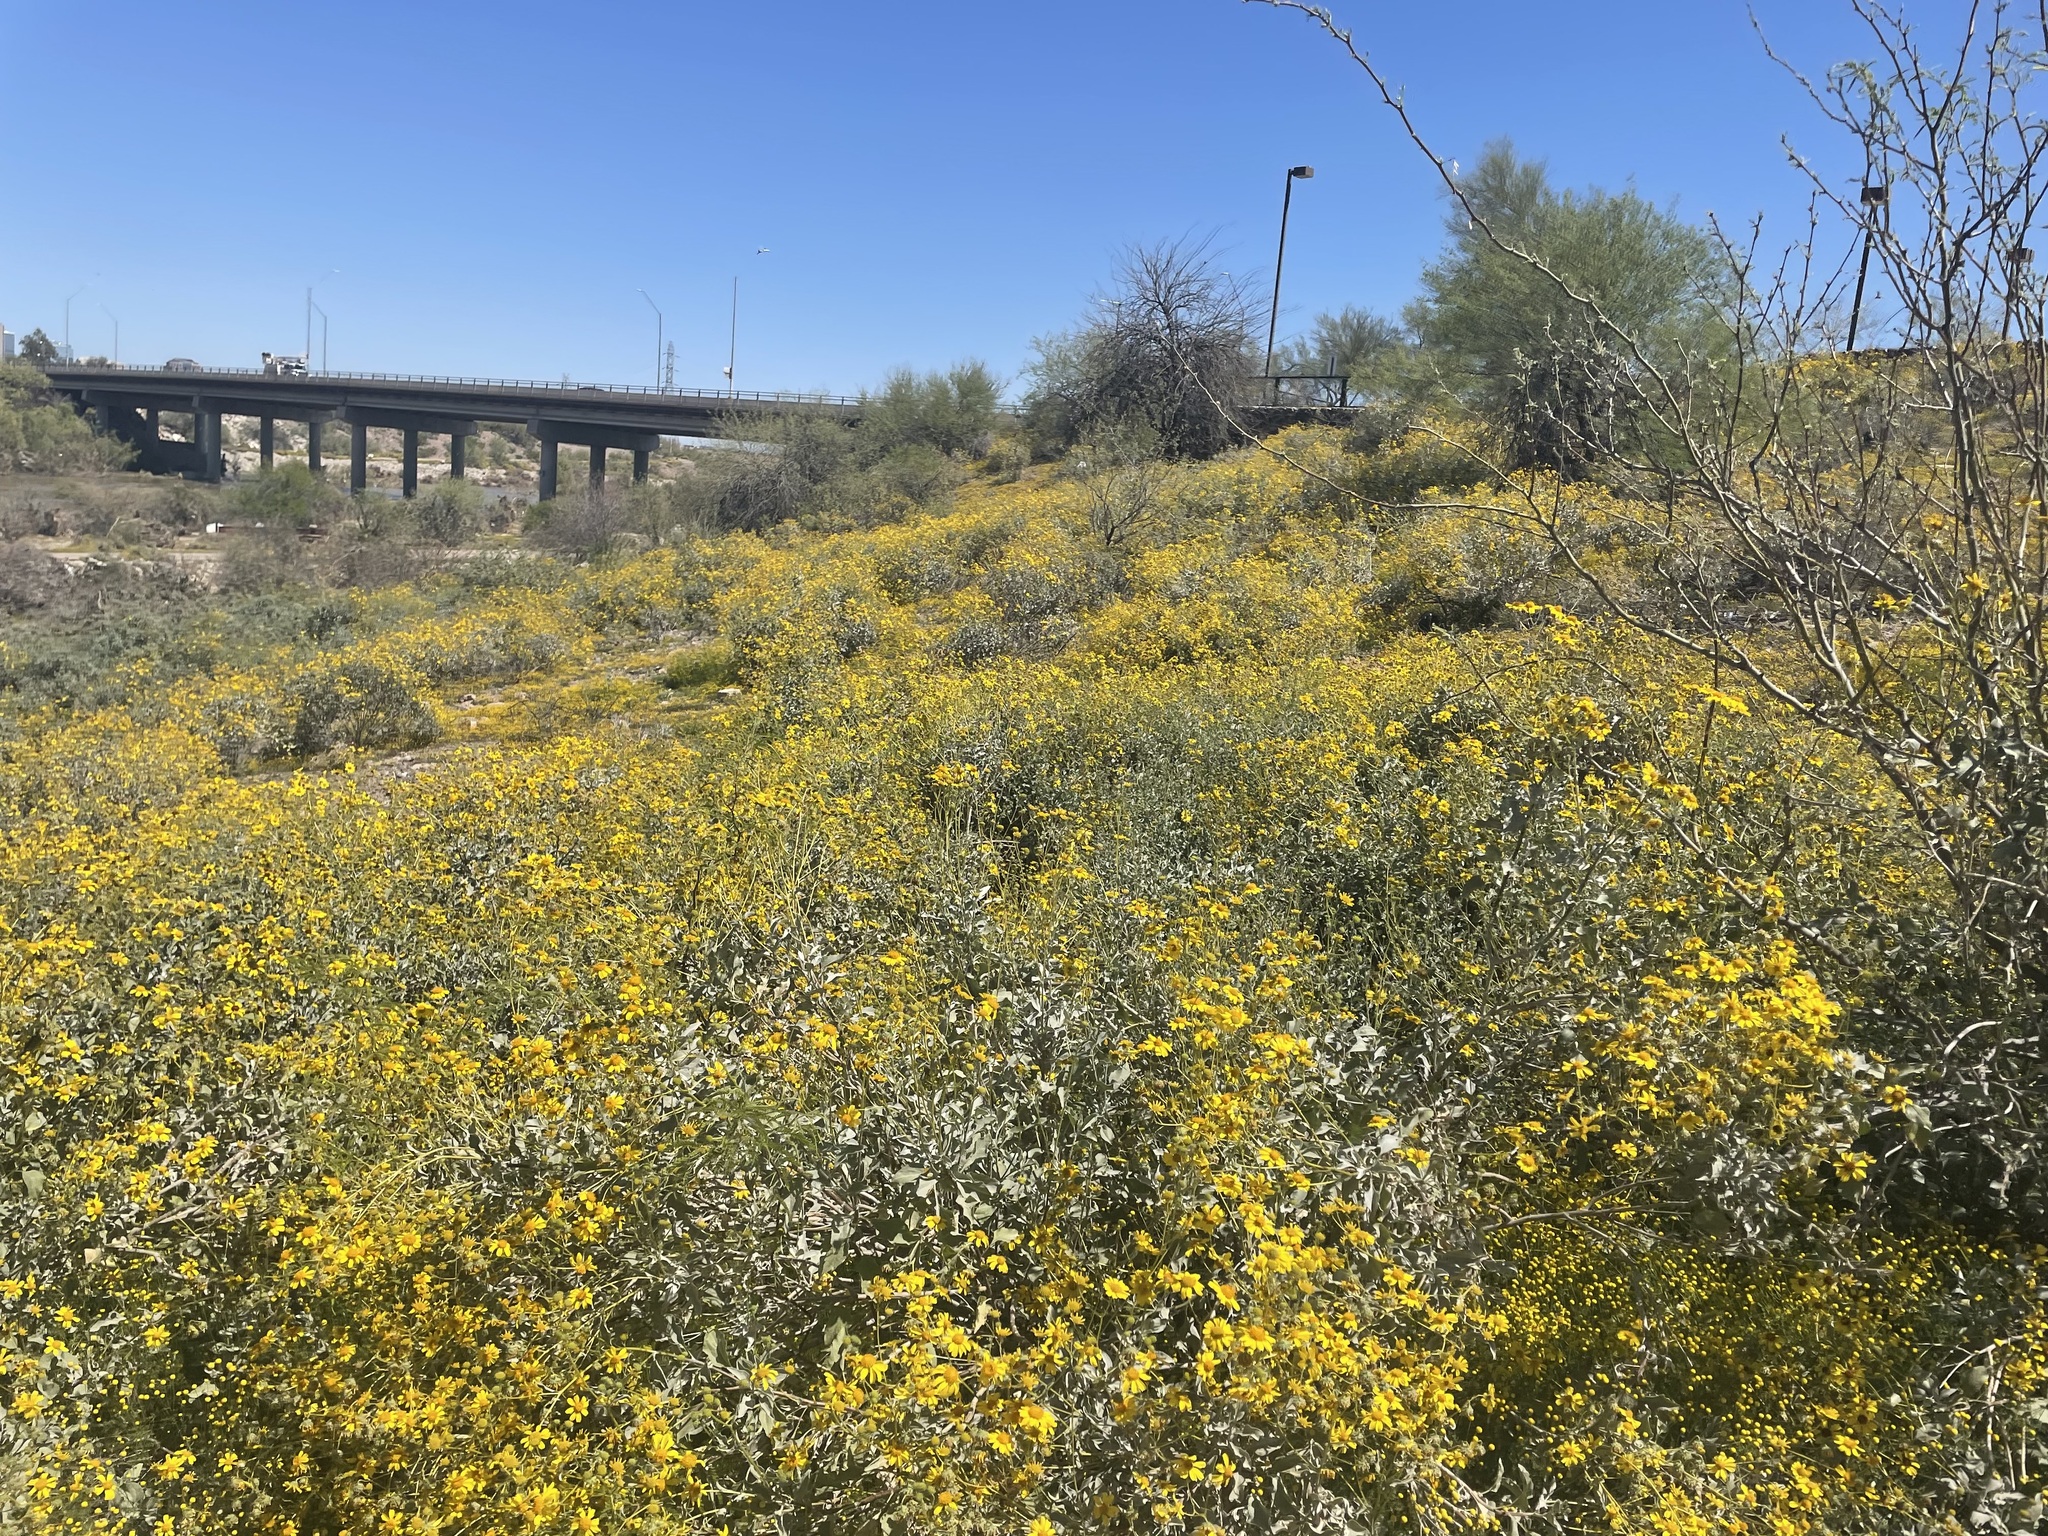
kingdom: Plantae
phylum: Tracheophyta
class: Magnoliopsida
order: Asterales
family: Asteraceae
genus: Encelia
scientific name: Encelia farinosa
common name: Brittlebush
